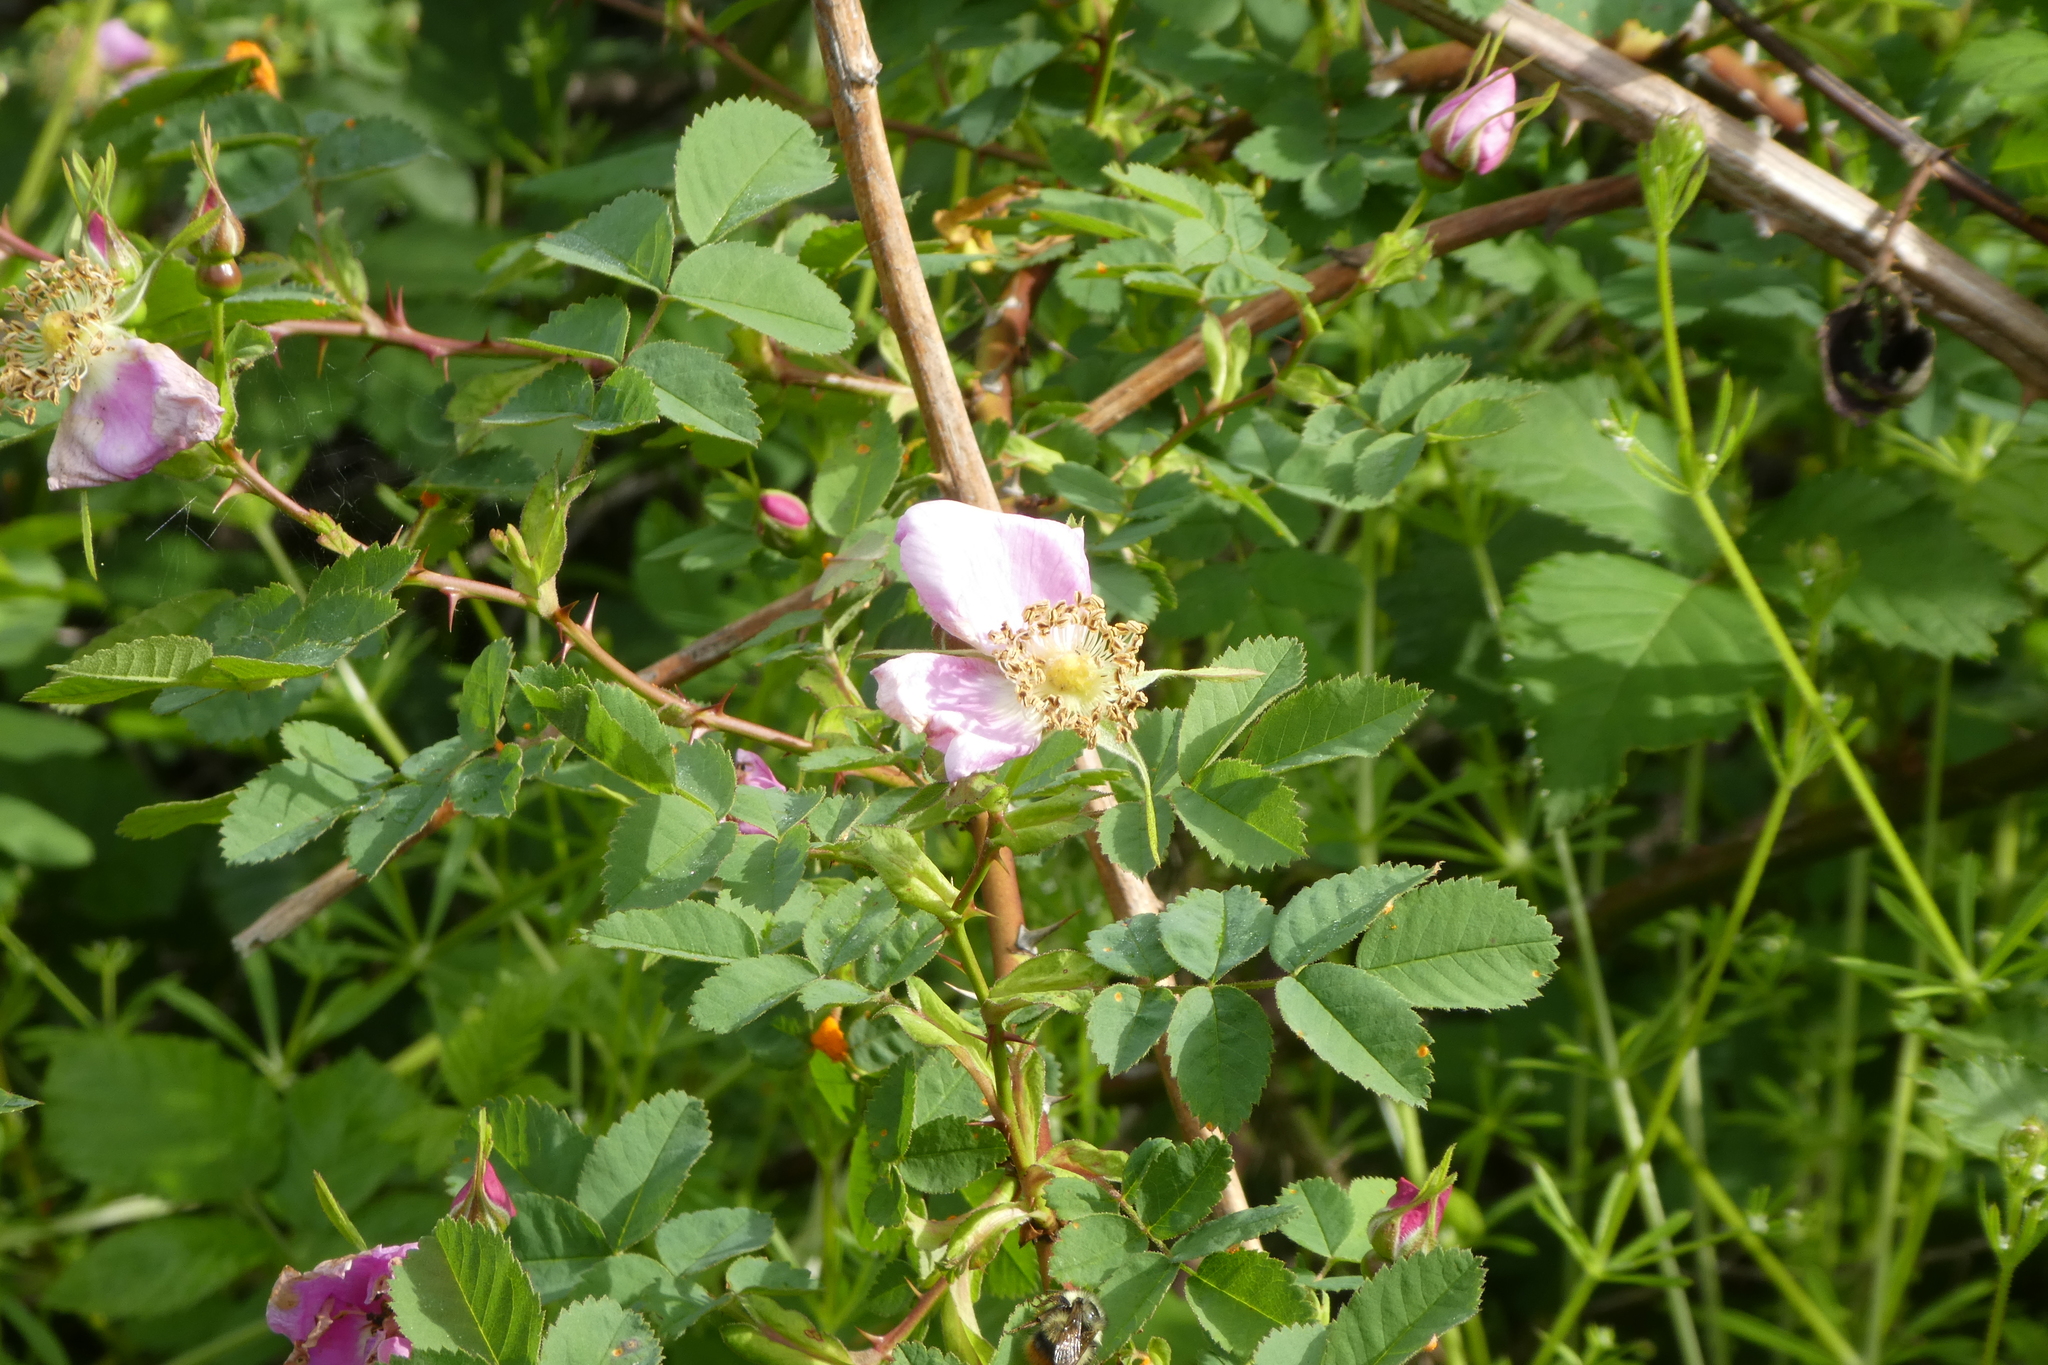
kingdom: Plantae
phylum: Tracheophyta
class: Magnoliopsida
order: Rosales
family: Rosaceae
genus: Rosa
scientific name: Rosa nutkana
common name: Nootka rose
